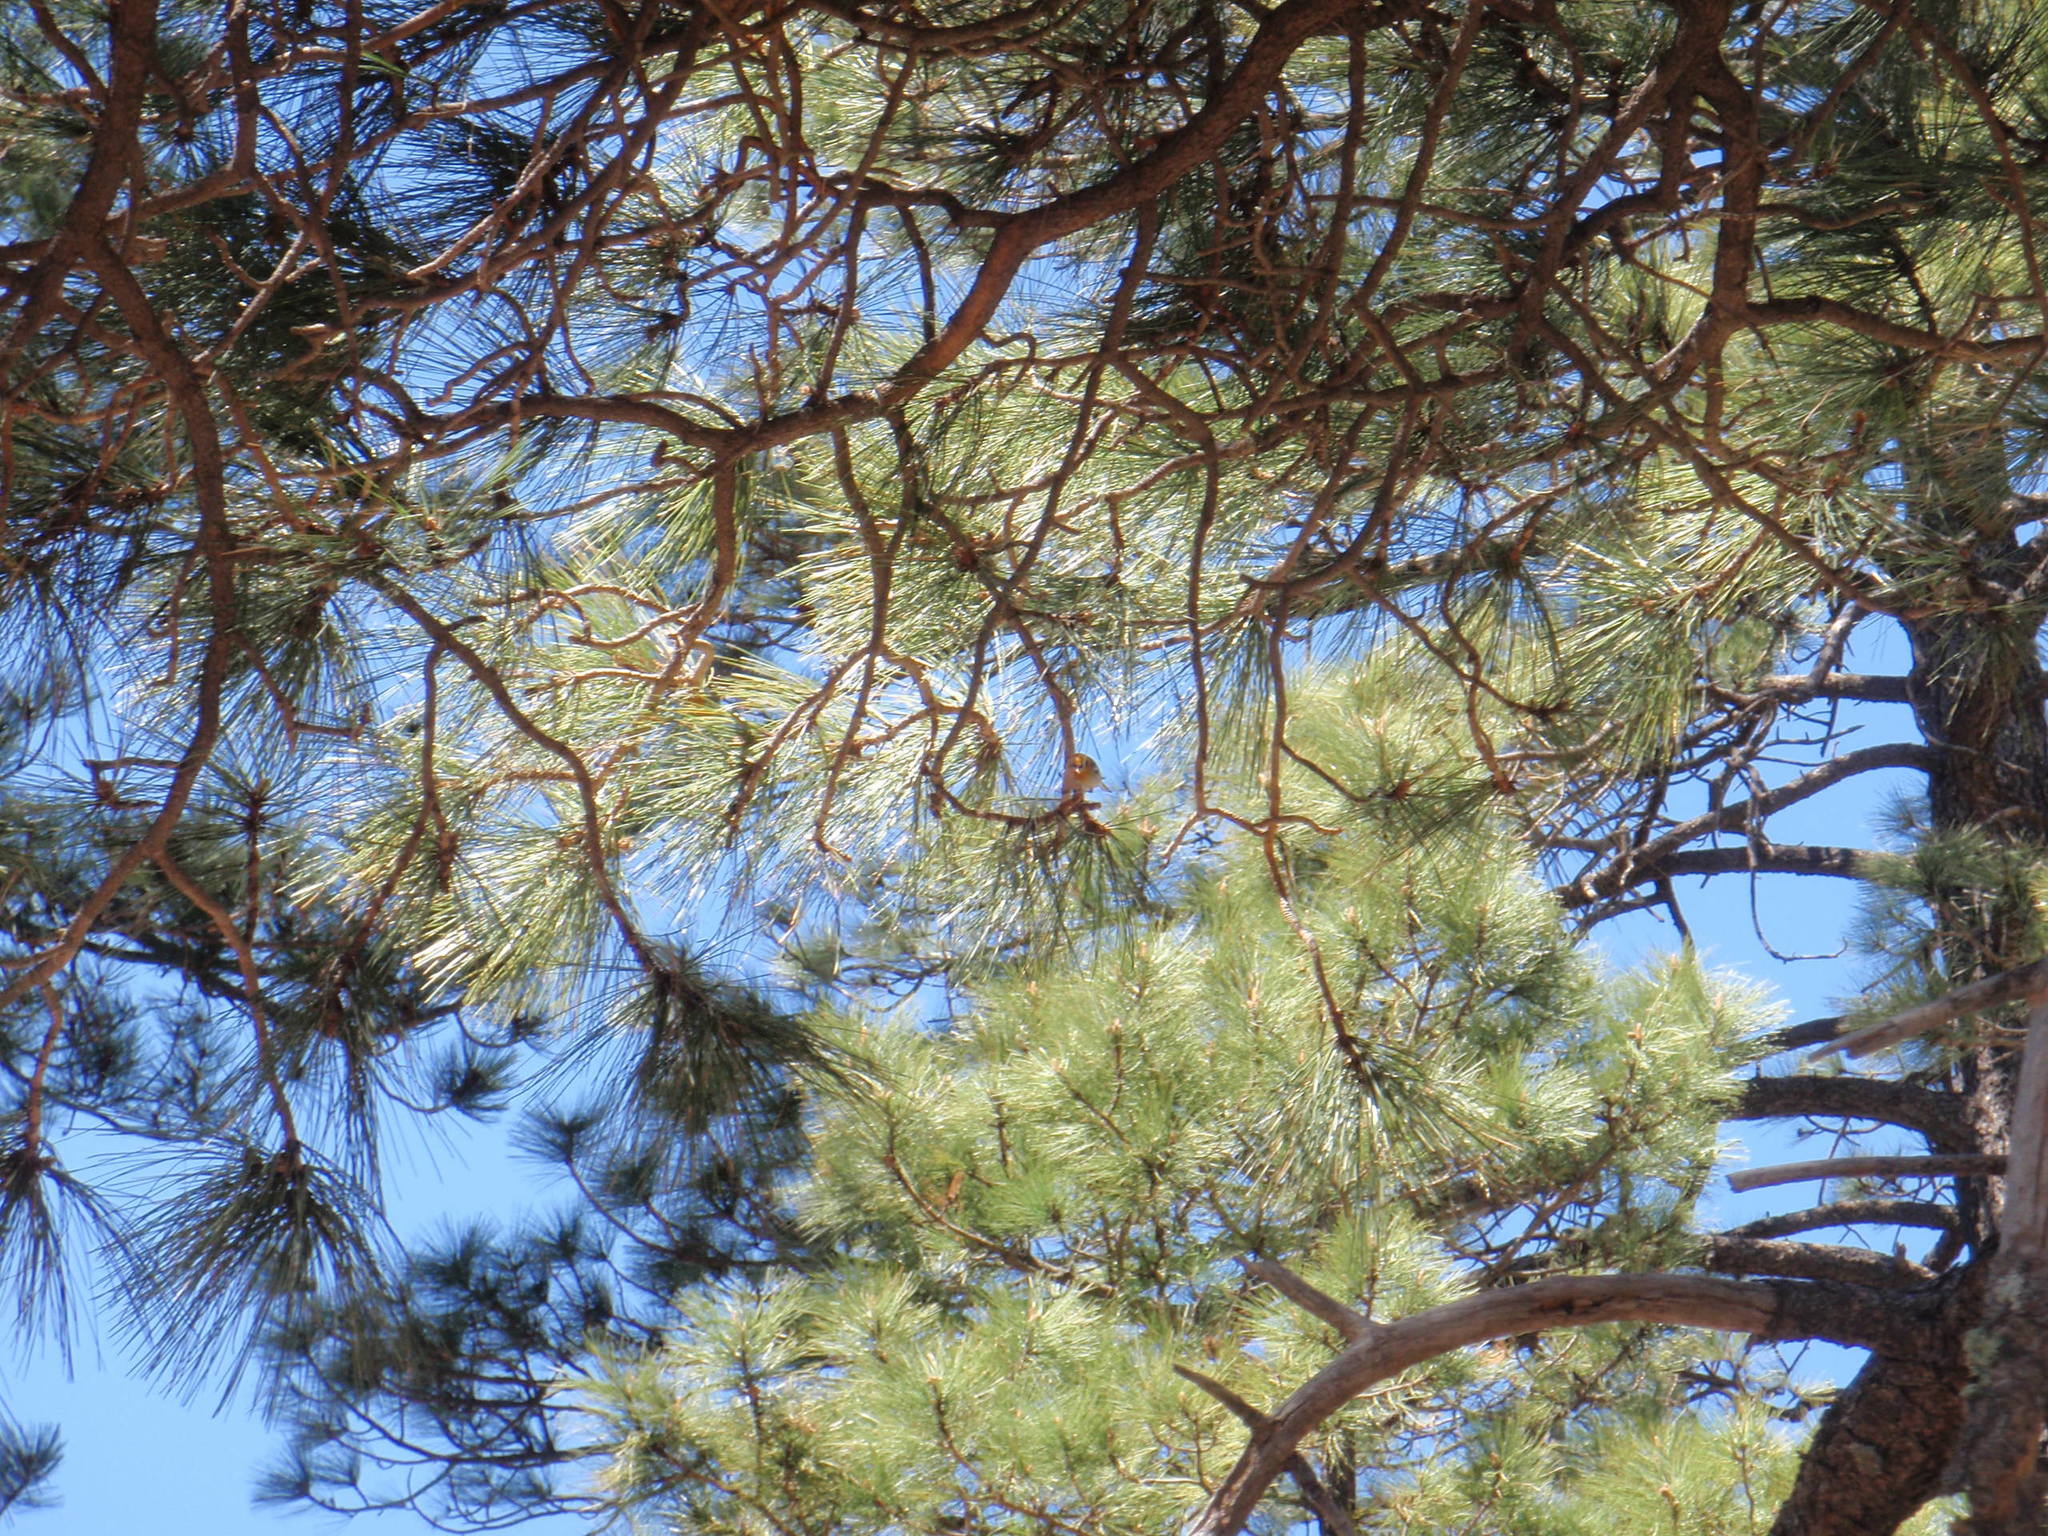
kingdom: Animalia
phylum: Chordata
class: Aves
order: Passeriformes
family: Peucedramidae
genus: Peucedramus
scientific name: Peucedramus taeniatus
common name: Olive warbler
